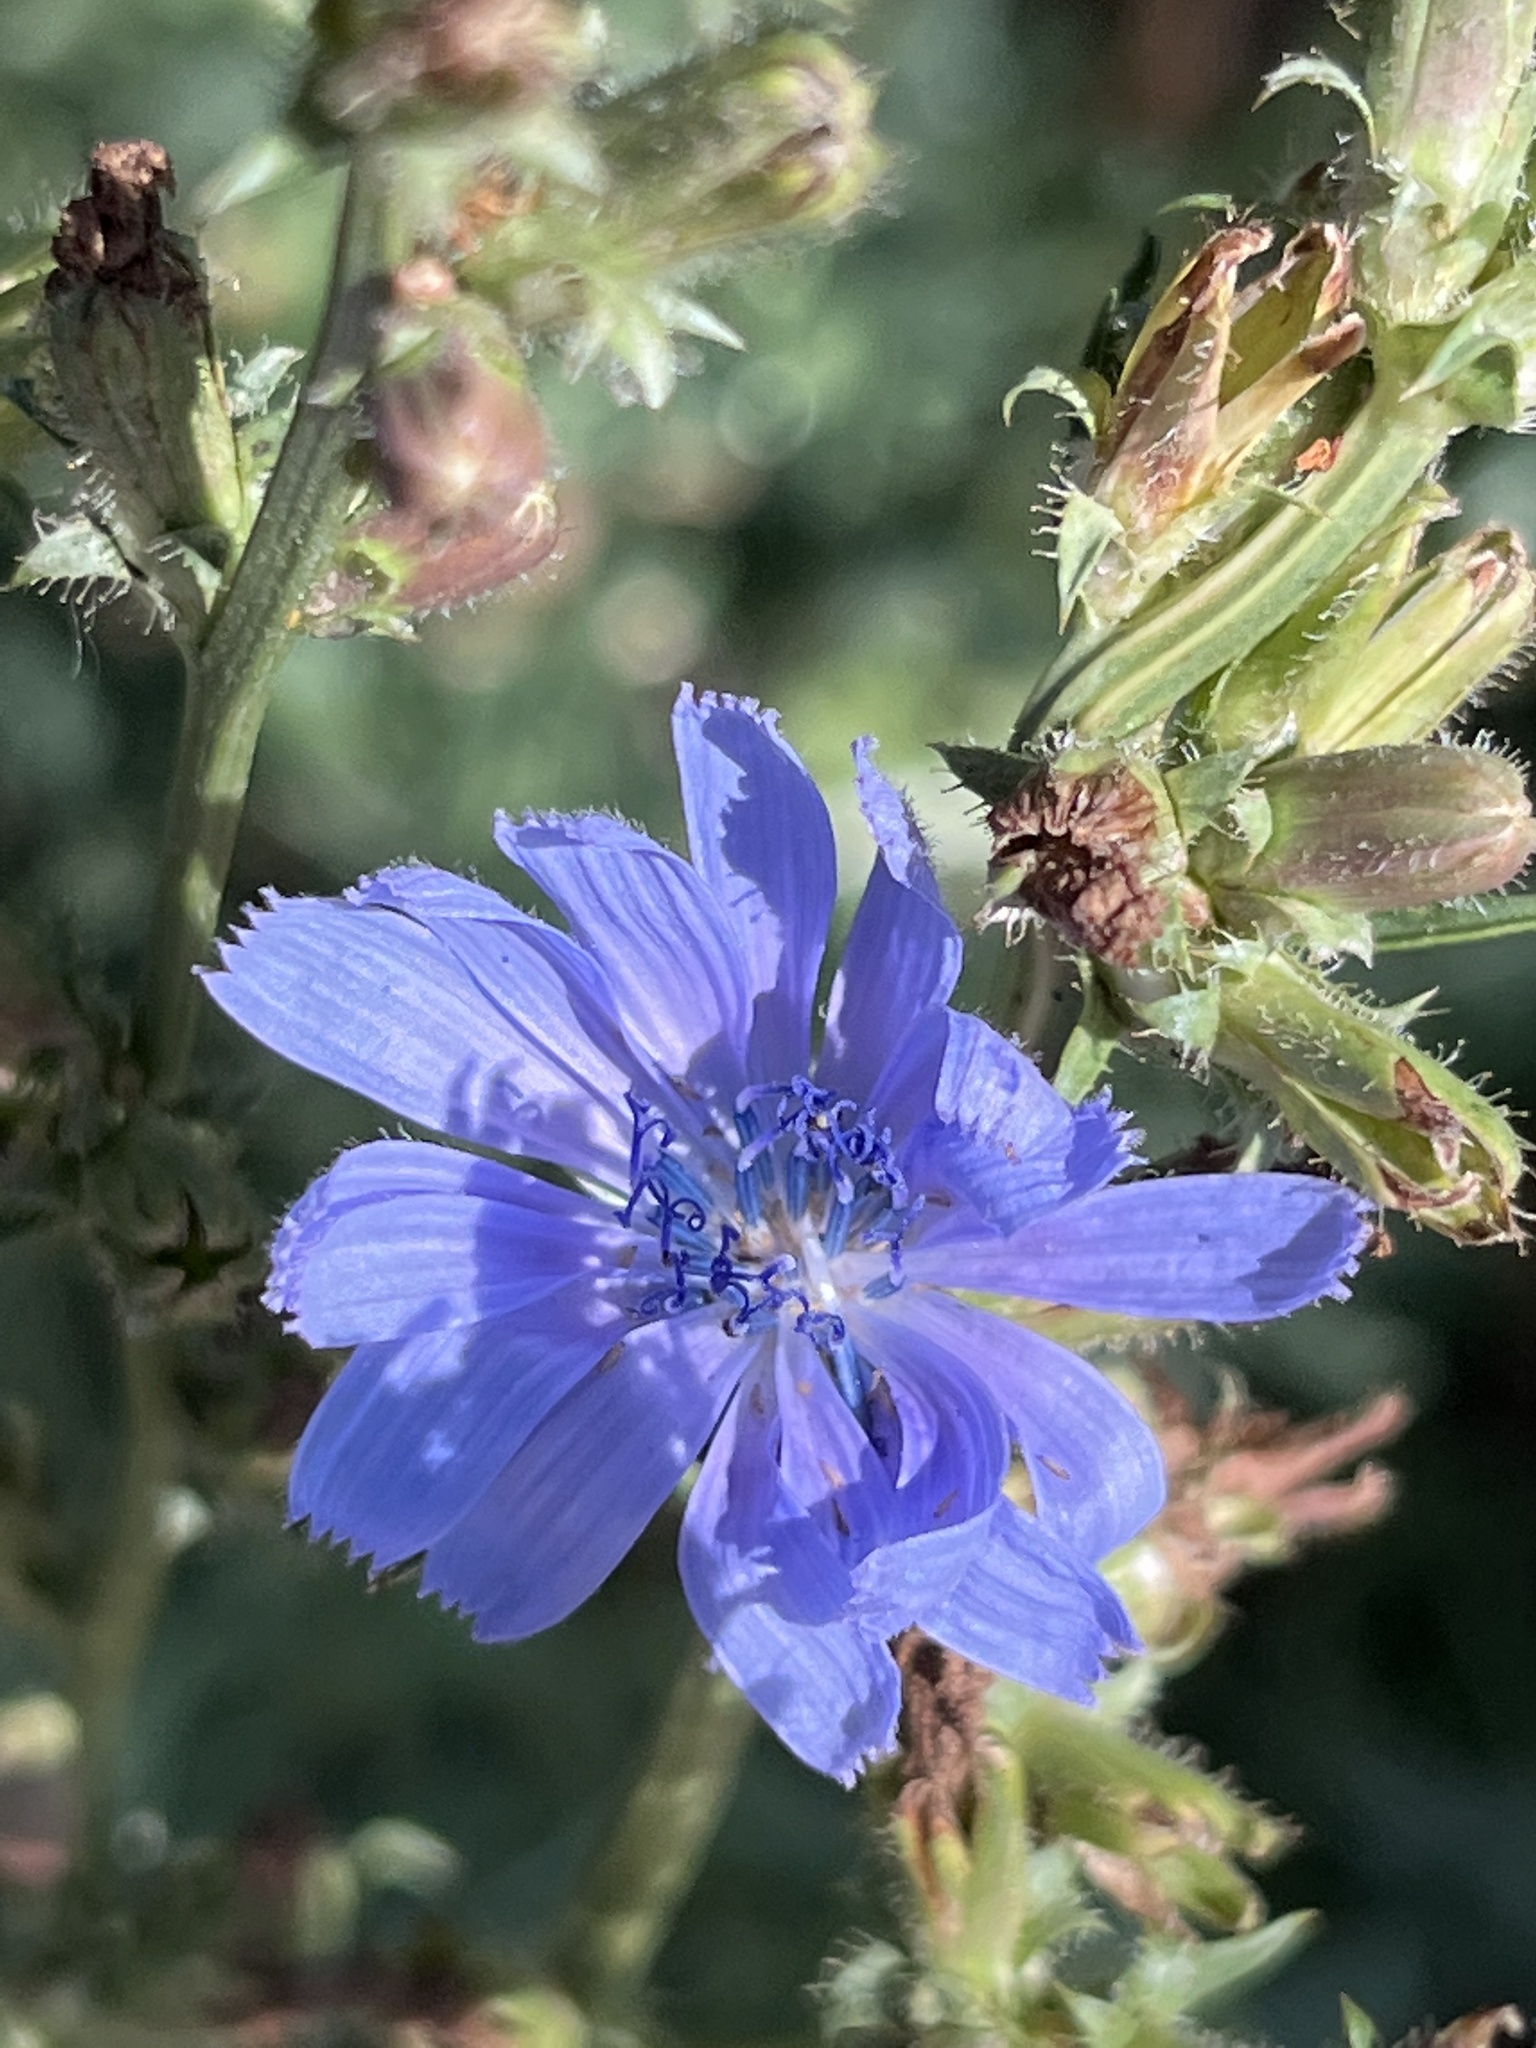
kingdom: Plantae
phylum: Tracheophyta
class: Magnoliopsida
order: Asterales
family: Asteraceae
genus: Cichorium
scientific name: Cichorium intybus
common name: Chicory
